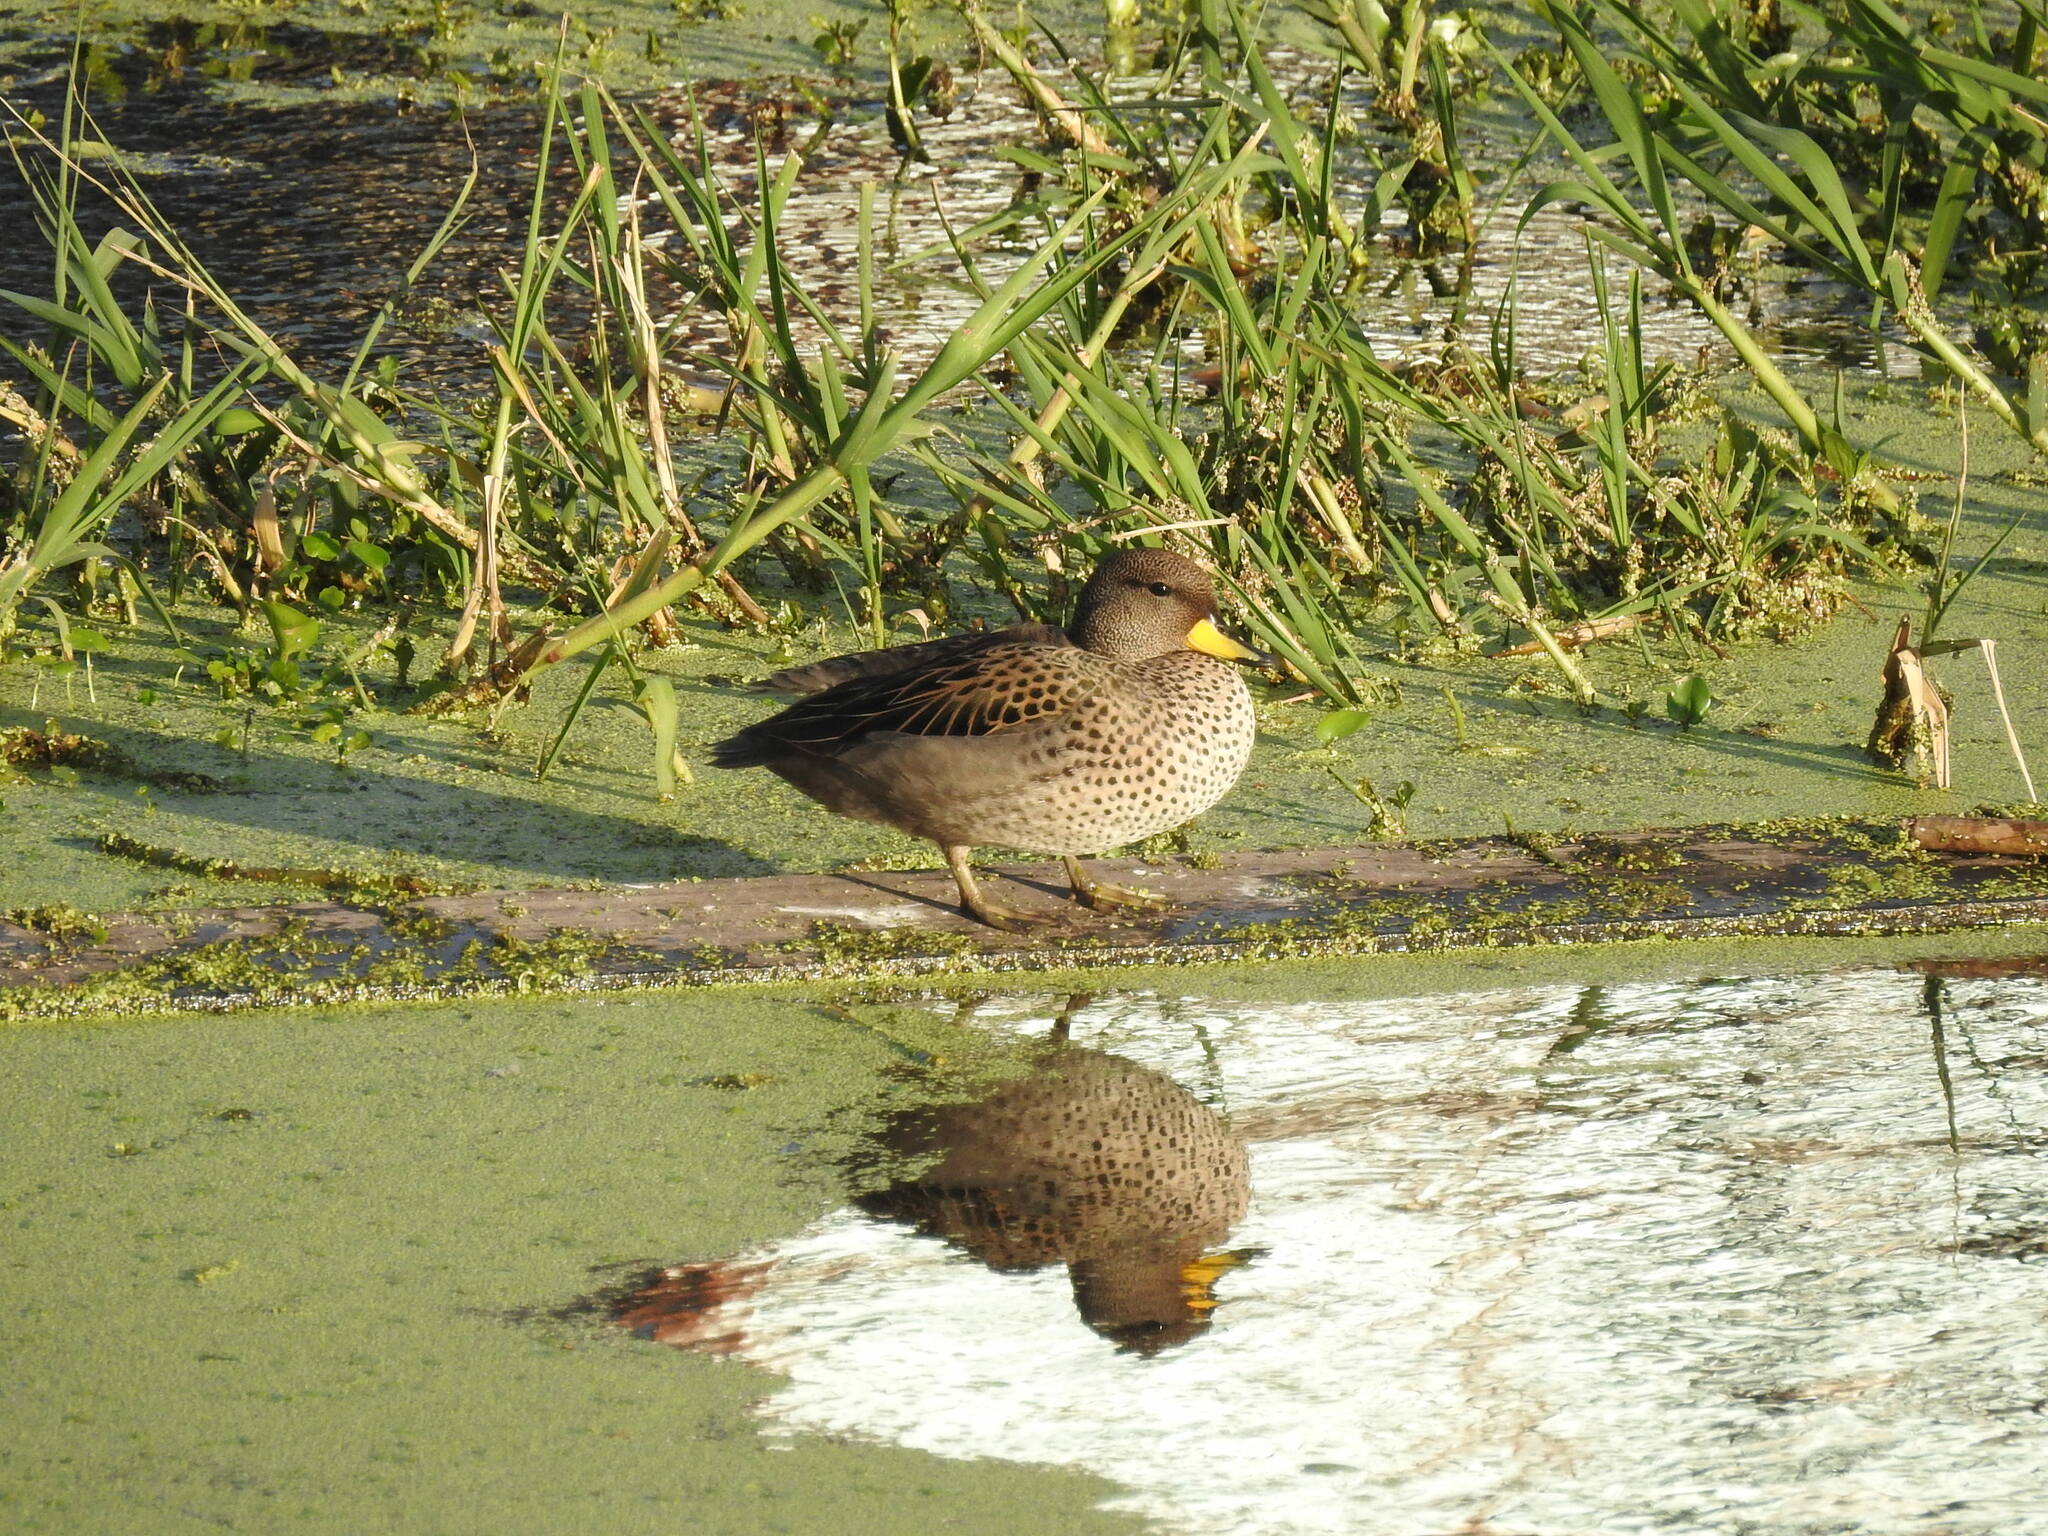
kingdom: Animalia
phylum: Chordata
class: Aves
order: Anseriformes
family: Anatidae
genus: Anas
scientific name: Anas flavirostris
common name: Yellow-billed teal
